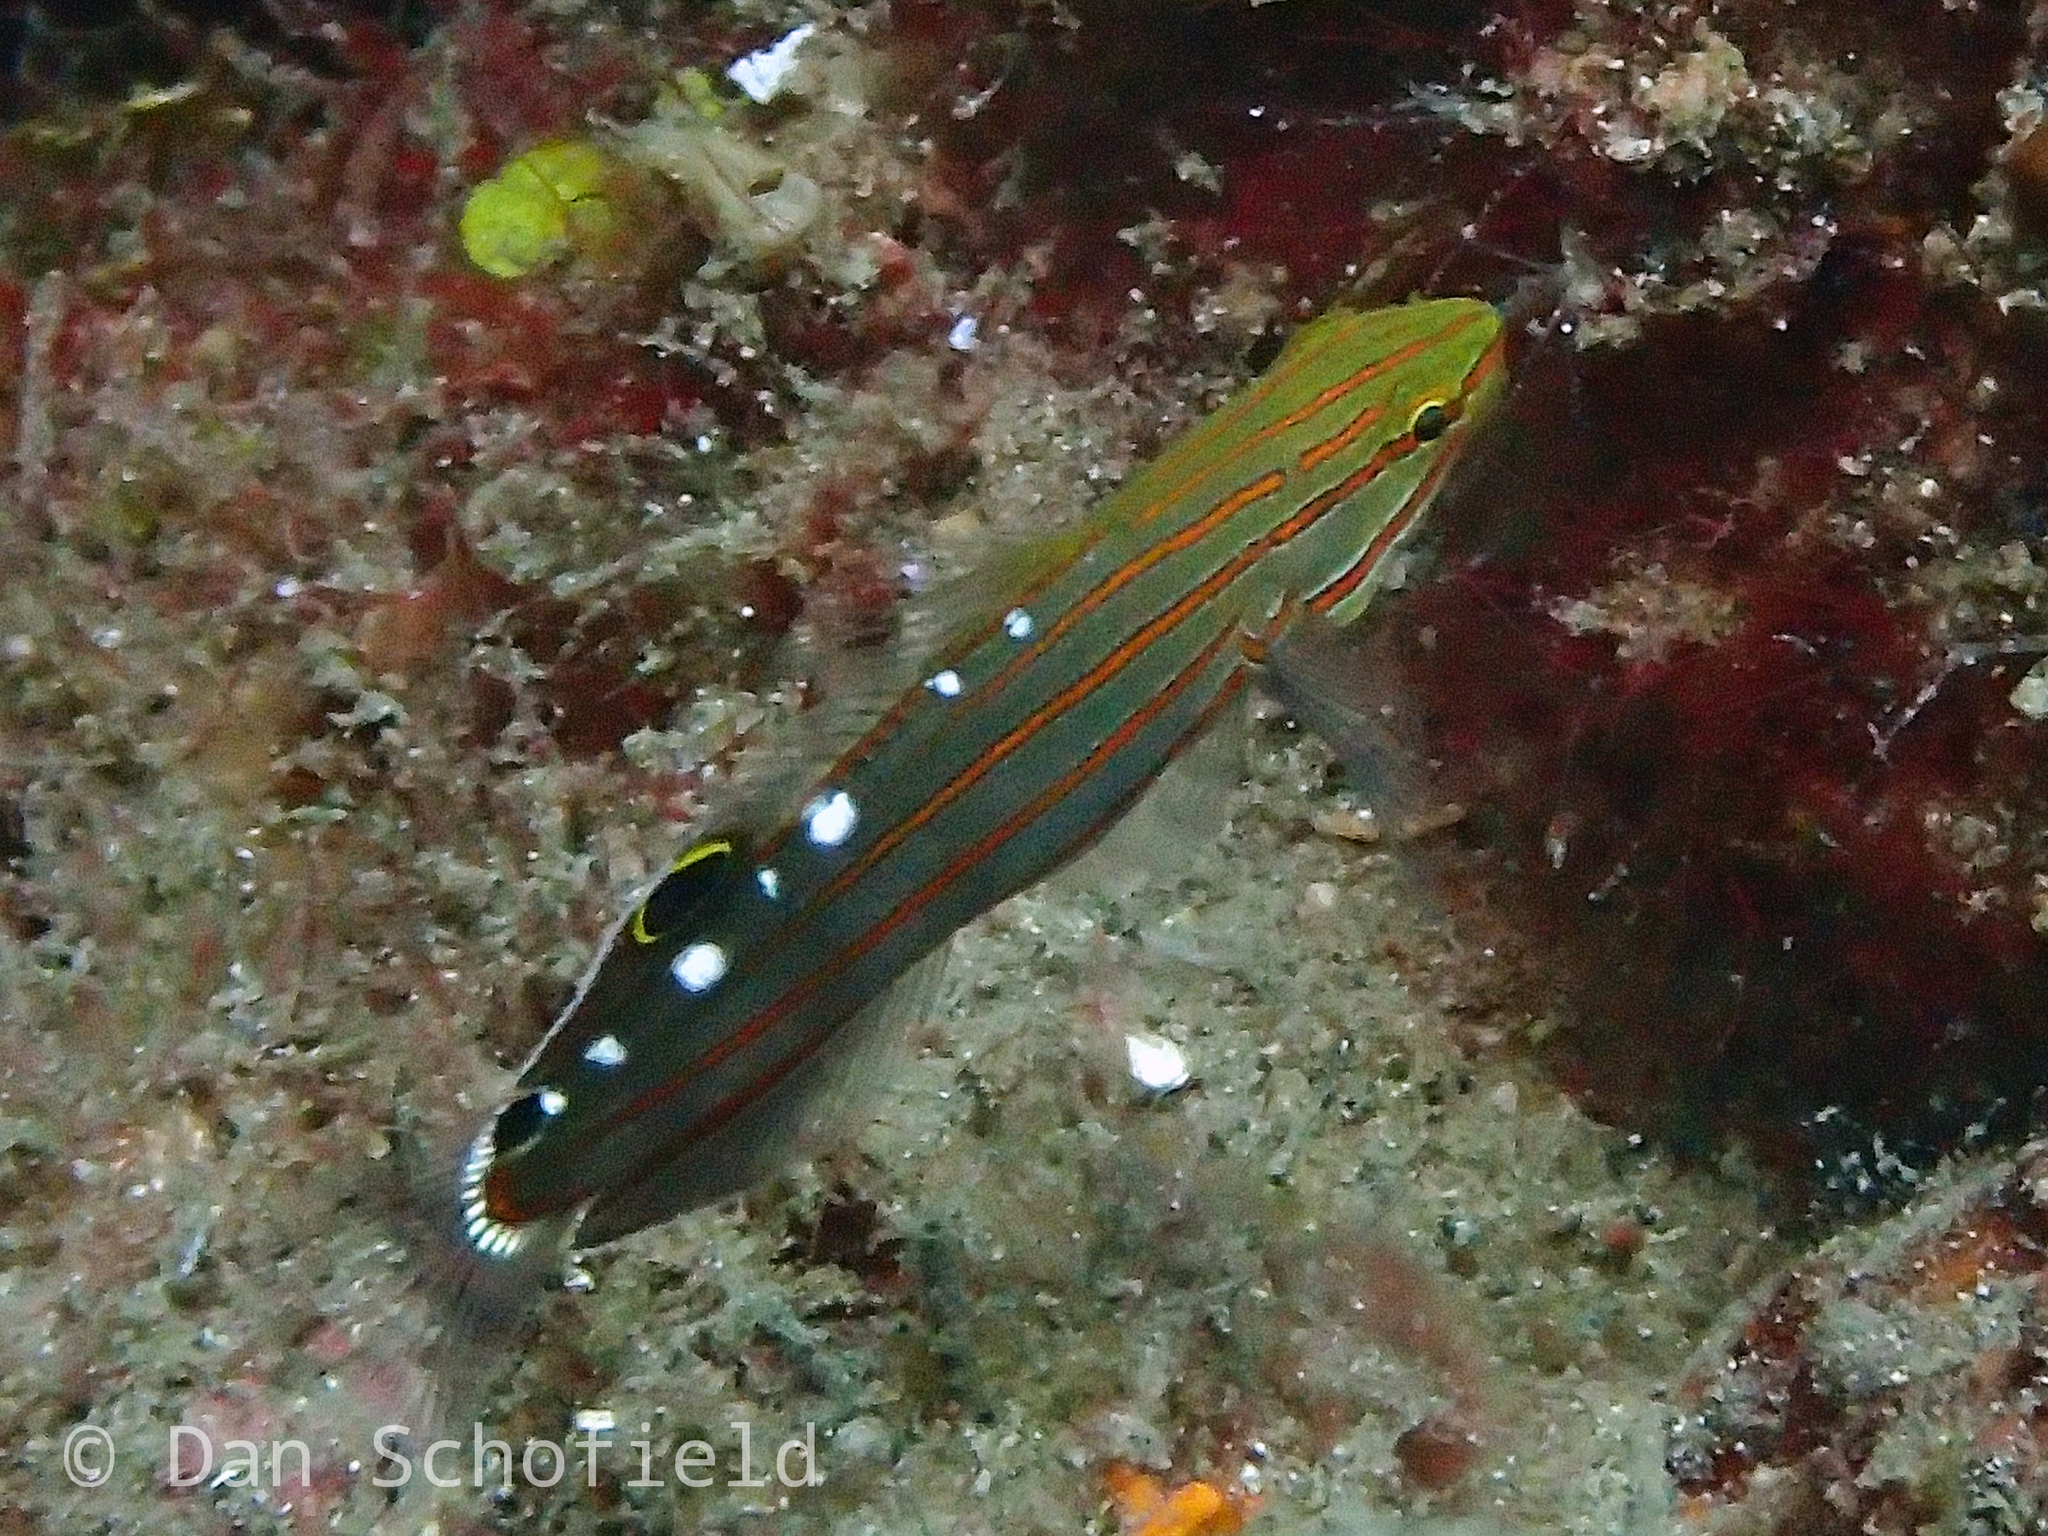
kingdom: Animalia
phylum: Chordata
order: Perciformes
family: Gobiidae
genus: Koumansetta
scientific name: Koumansetta rainfordi
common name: Old glory
